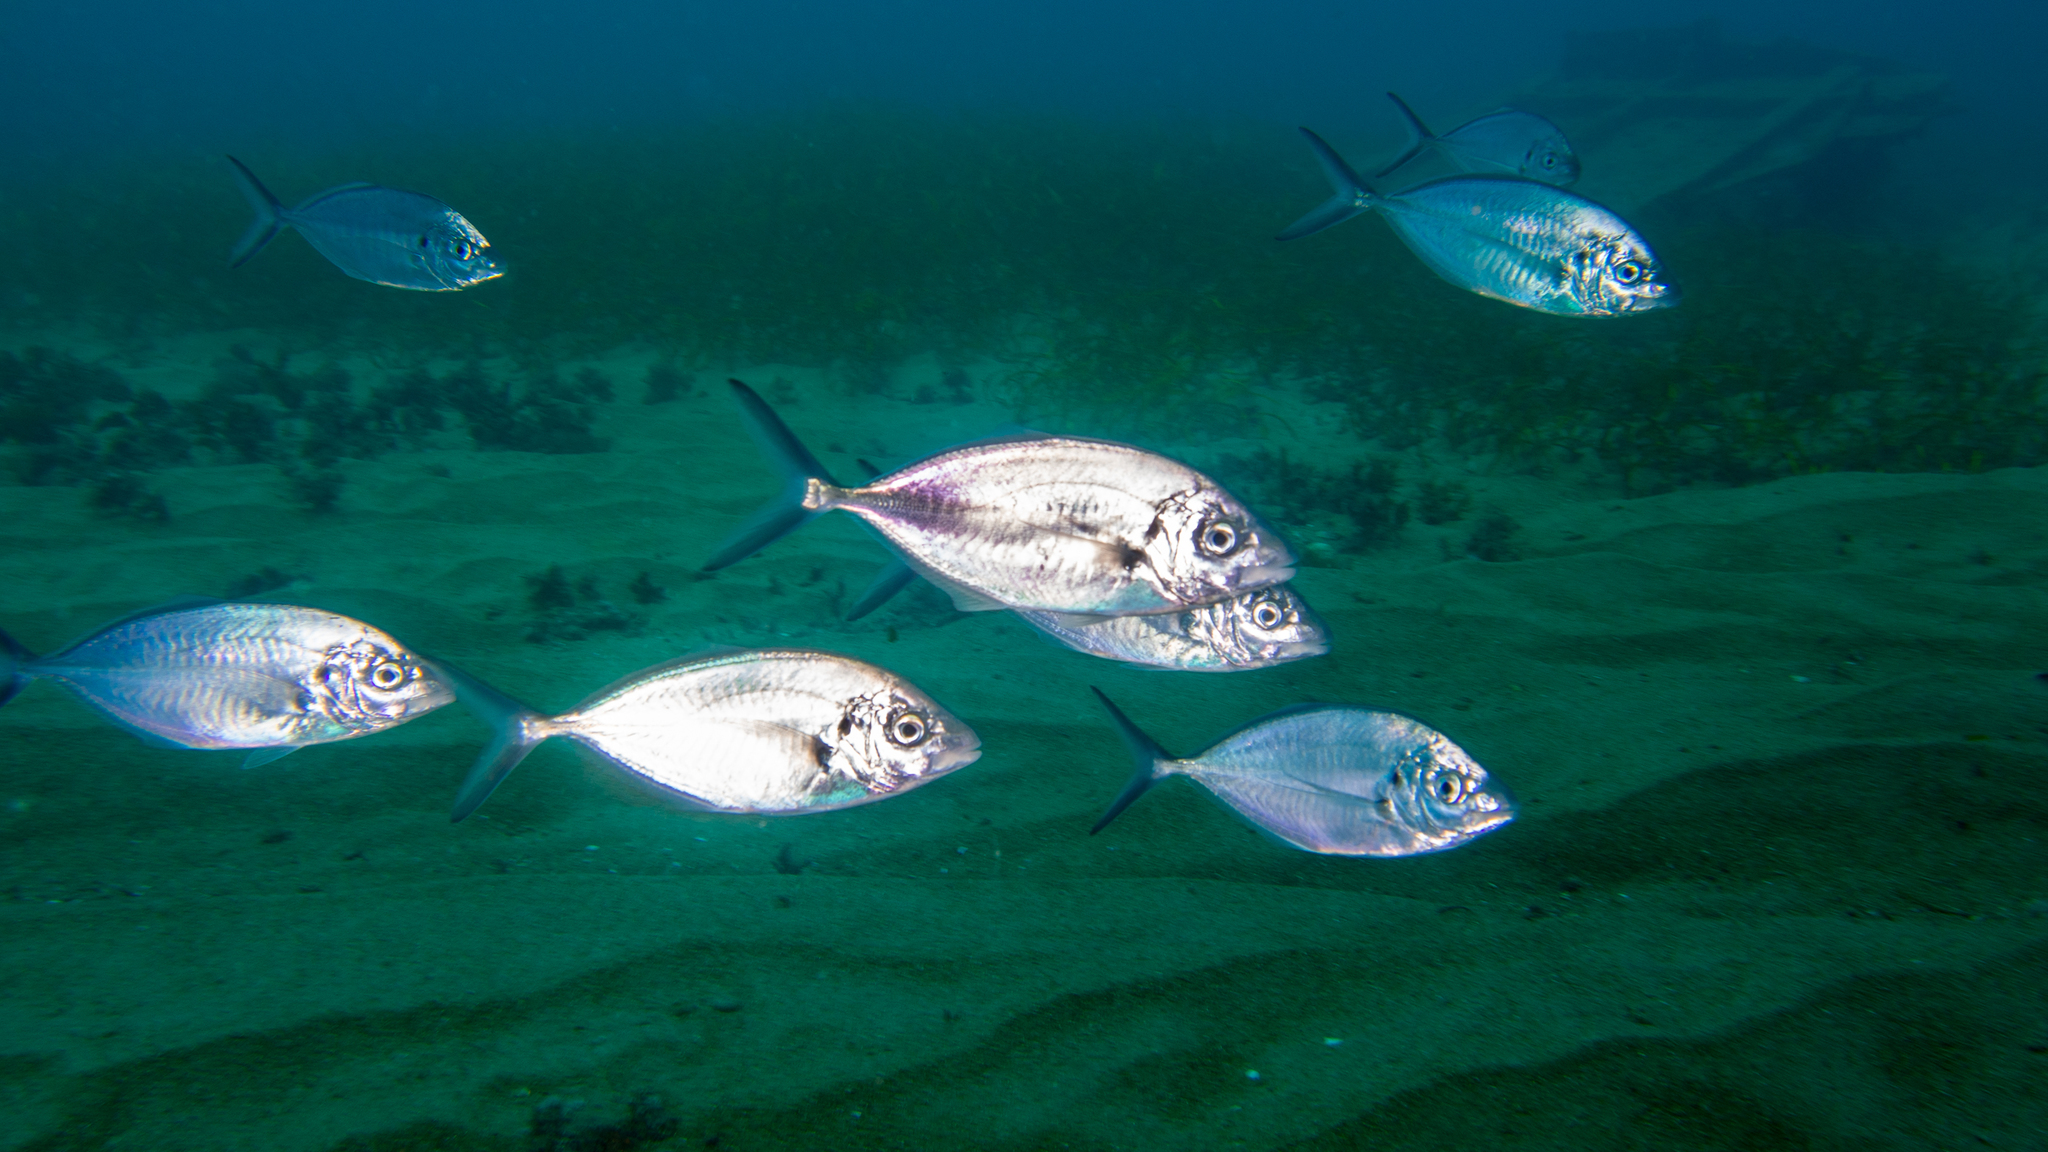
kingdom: Animalia
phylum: Chordata
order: Perciformes
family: Carangidae
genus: Pseudocaranx
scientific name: Pseudocaranx wrighti
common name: Skipjack trevally
